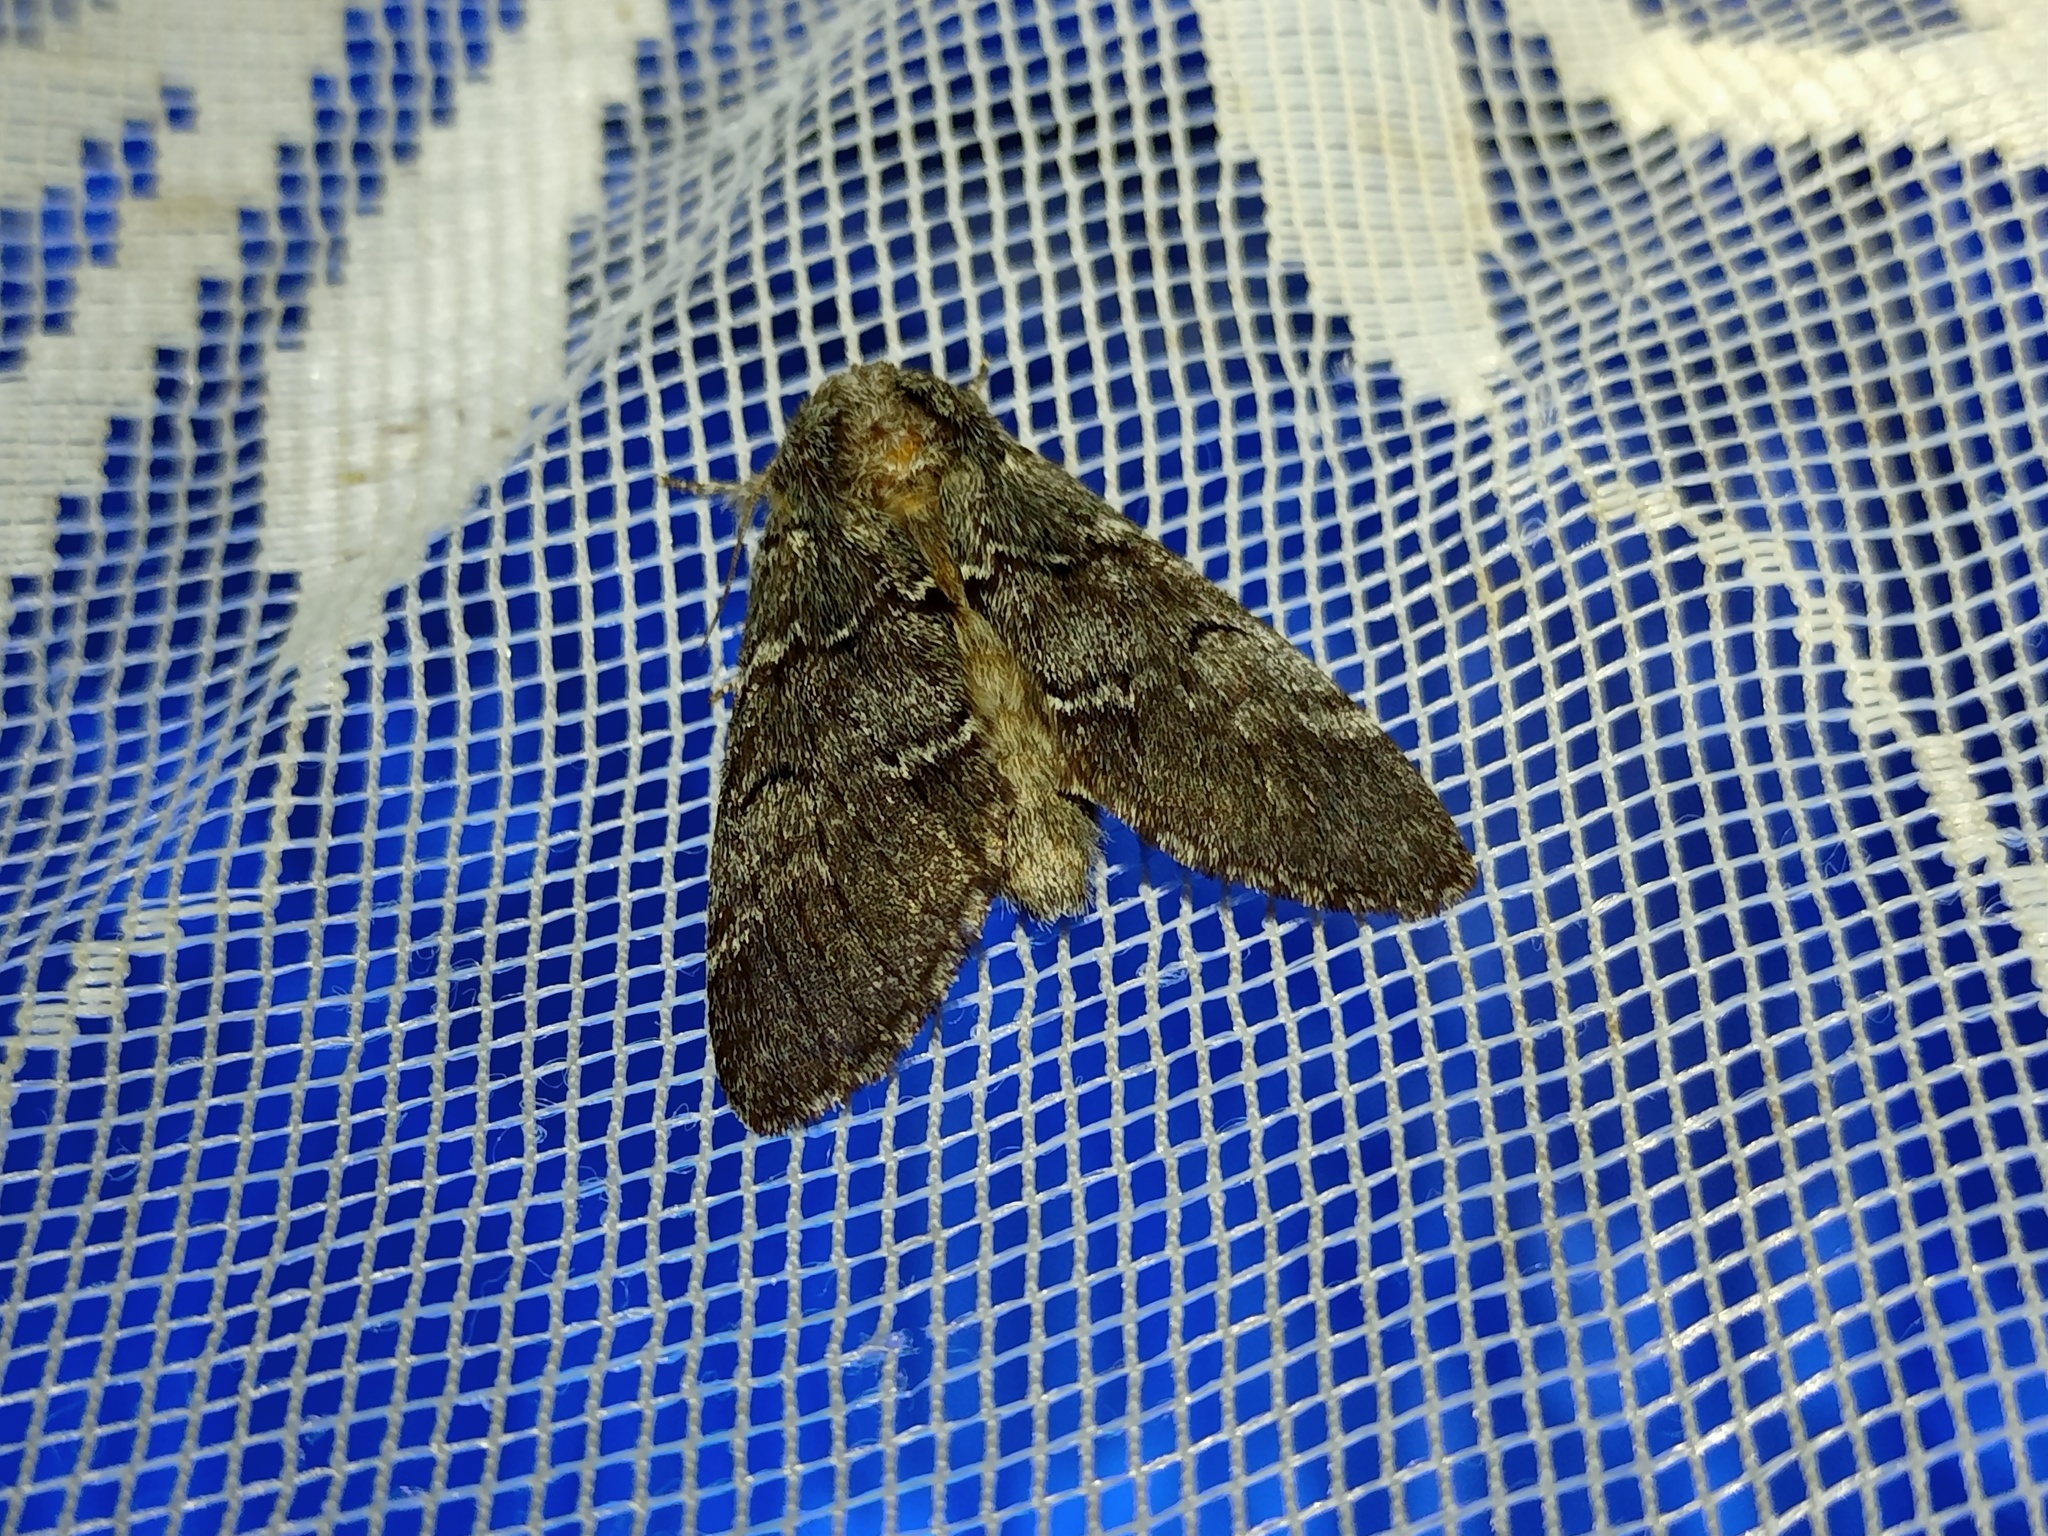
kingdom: Animalia
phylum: Arthropoda
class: Insecta
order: Lepidoptera
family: Notodontidae
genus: Drymonia
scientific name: Drymonia ruficornis
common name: Lunar marbled brown
